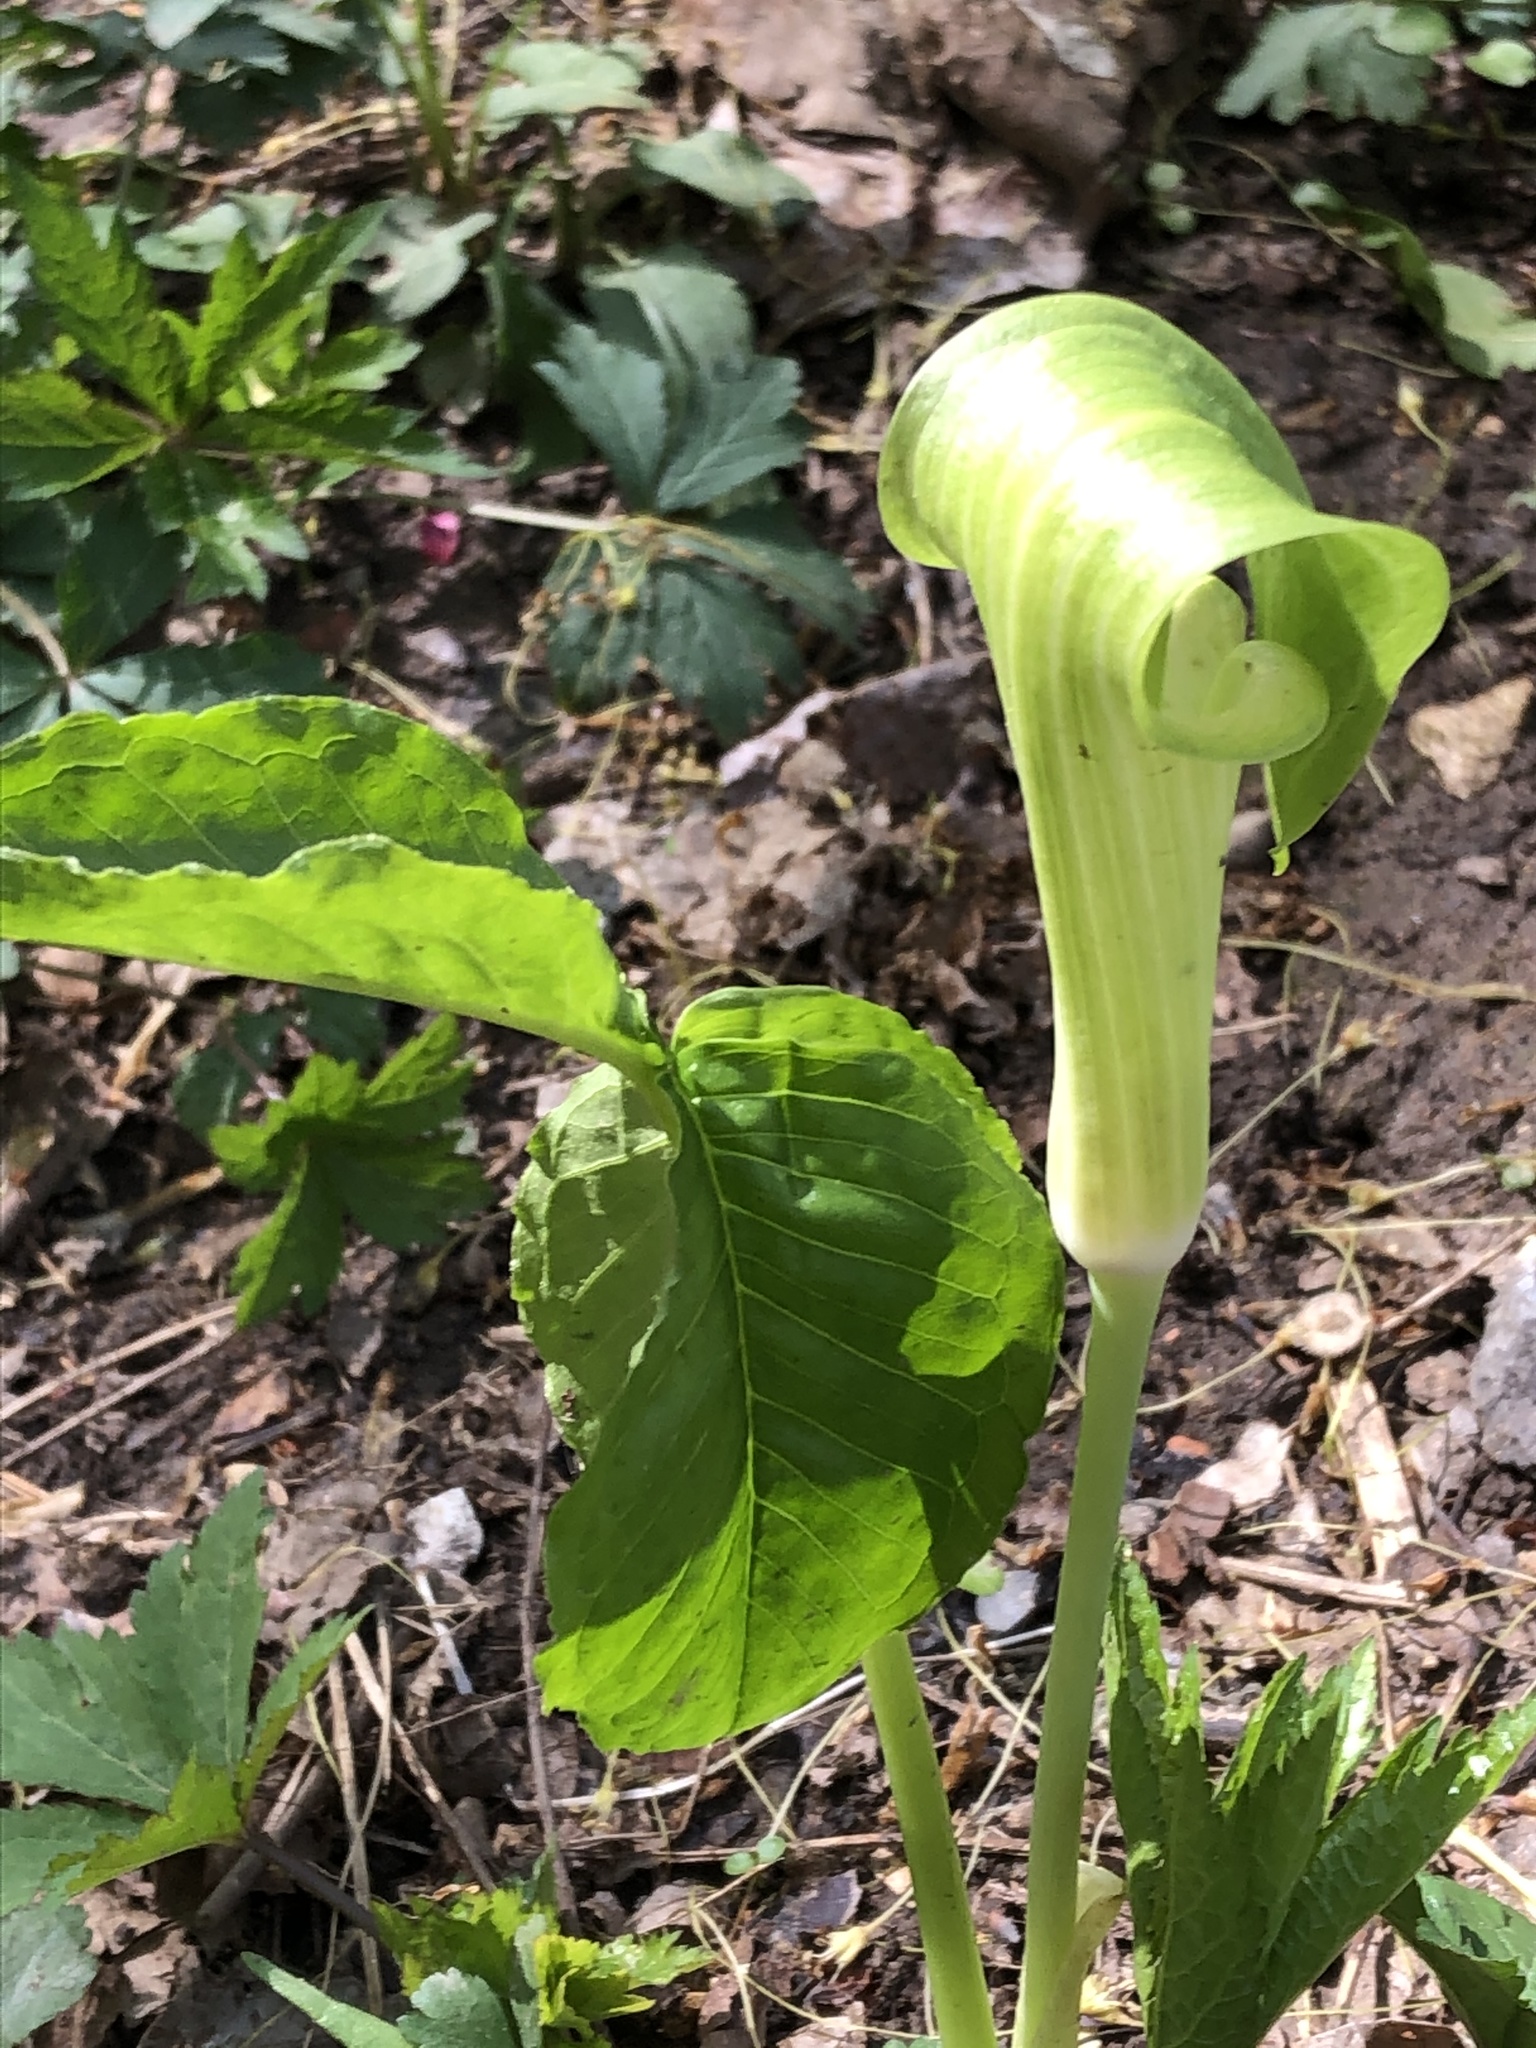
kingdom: Plantae
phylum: Tracheophyta
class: Liliopsida
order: Alismatales
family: Araceae
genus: Arisaema
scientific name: Arisaema triphyllum
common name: Jack-in-the-pulpit
